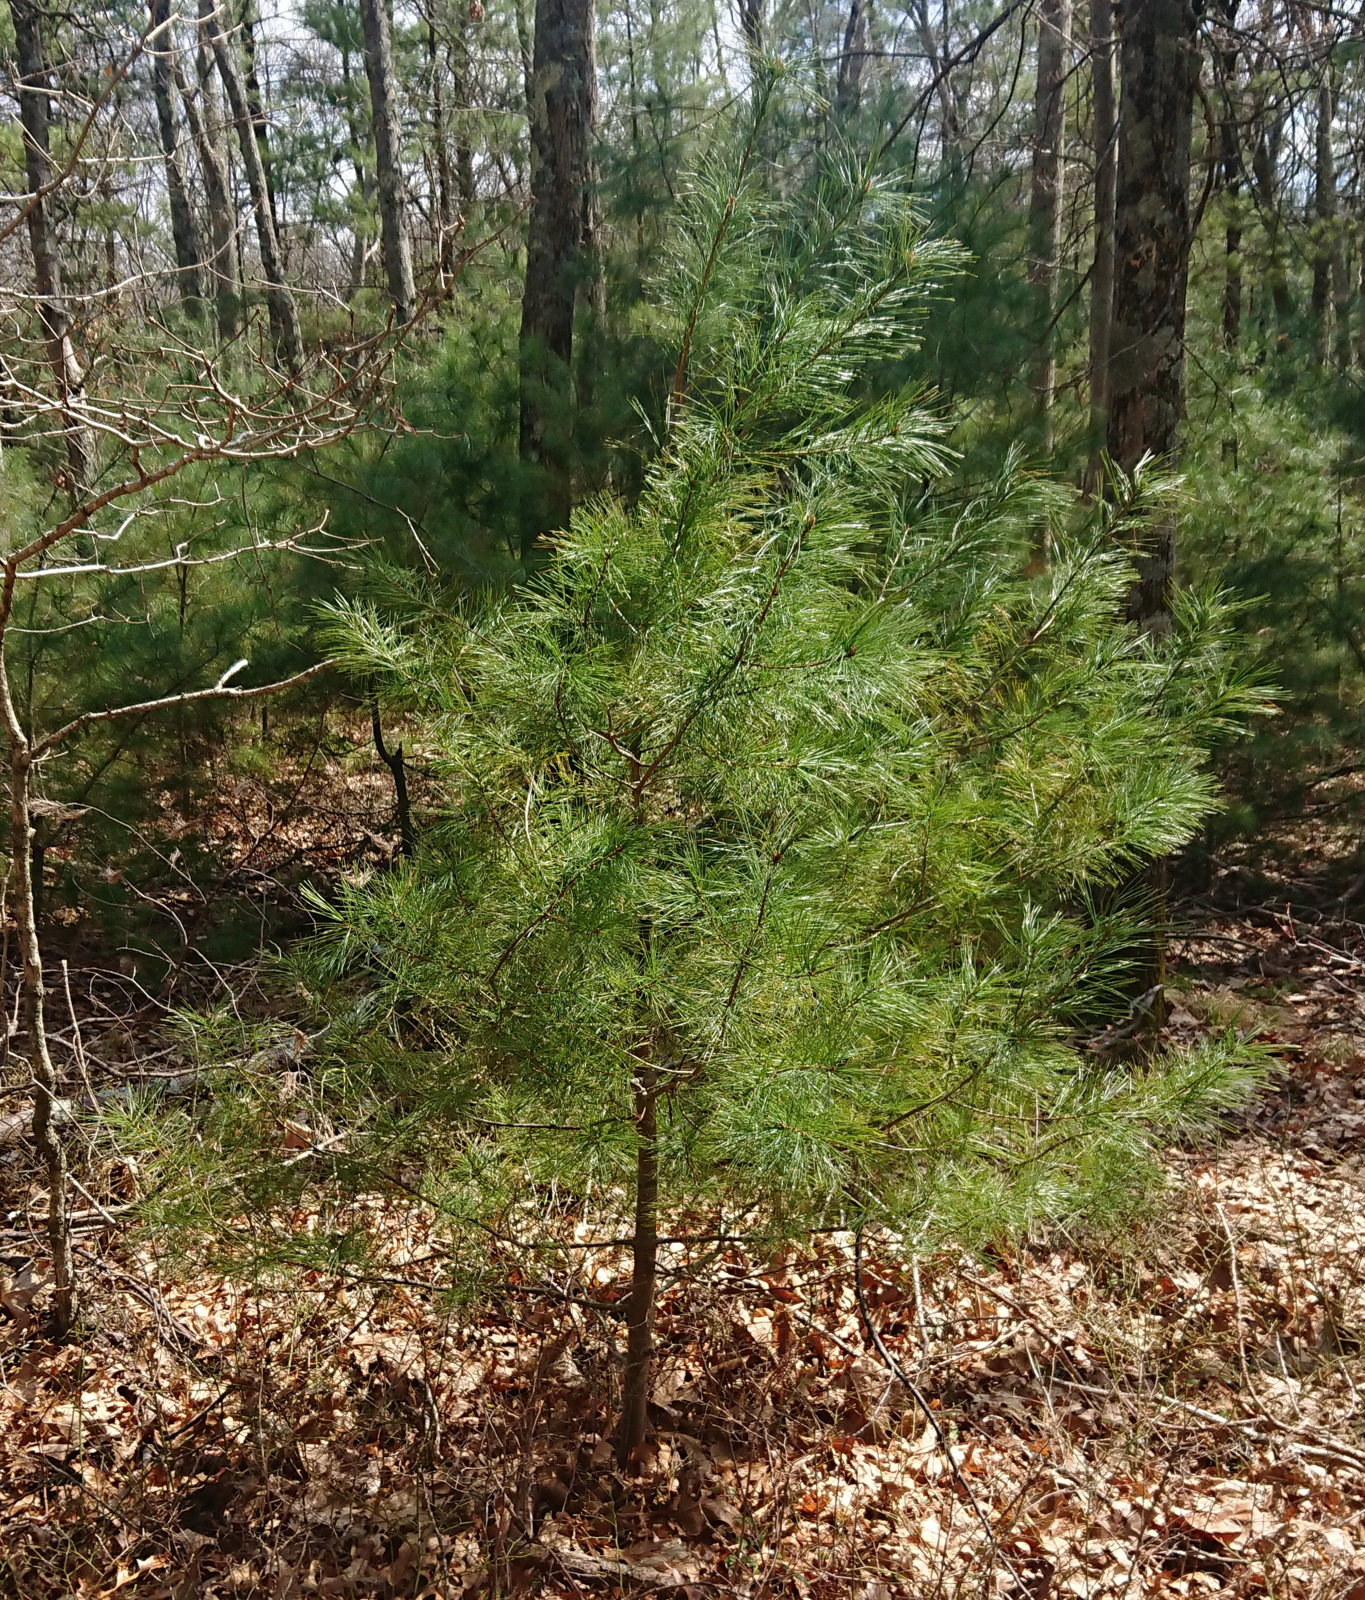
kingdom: Plantae
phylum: Tracheophyta
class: Pinopsida
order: Pinales
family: Pinaceae
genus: Pinus
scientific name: Pinus strobus
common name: Weymouth pine
